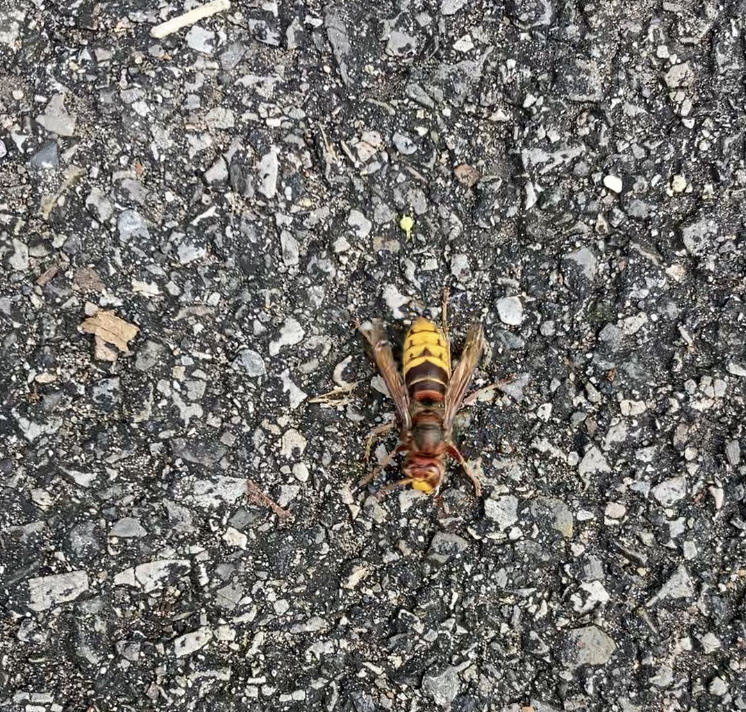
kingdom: Animalia
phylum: Arthropoda
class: Insecta
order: Hymenoptera
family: Vespidae
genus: Vespa
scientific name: Vespa crabro
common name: Hornet
